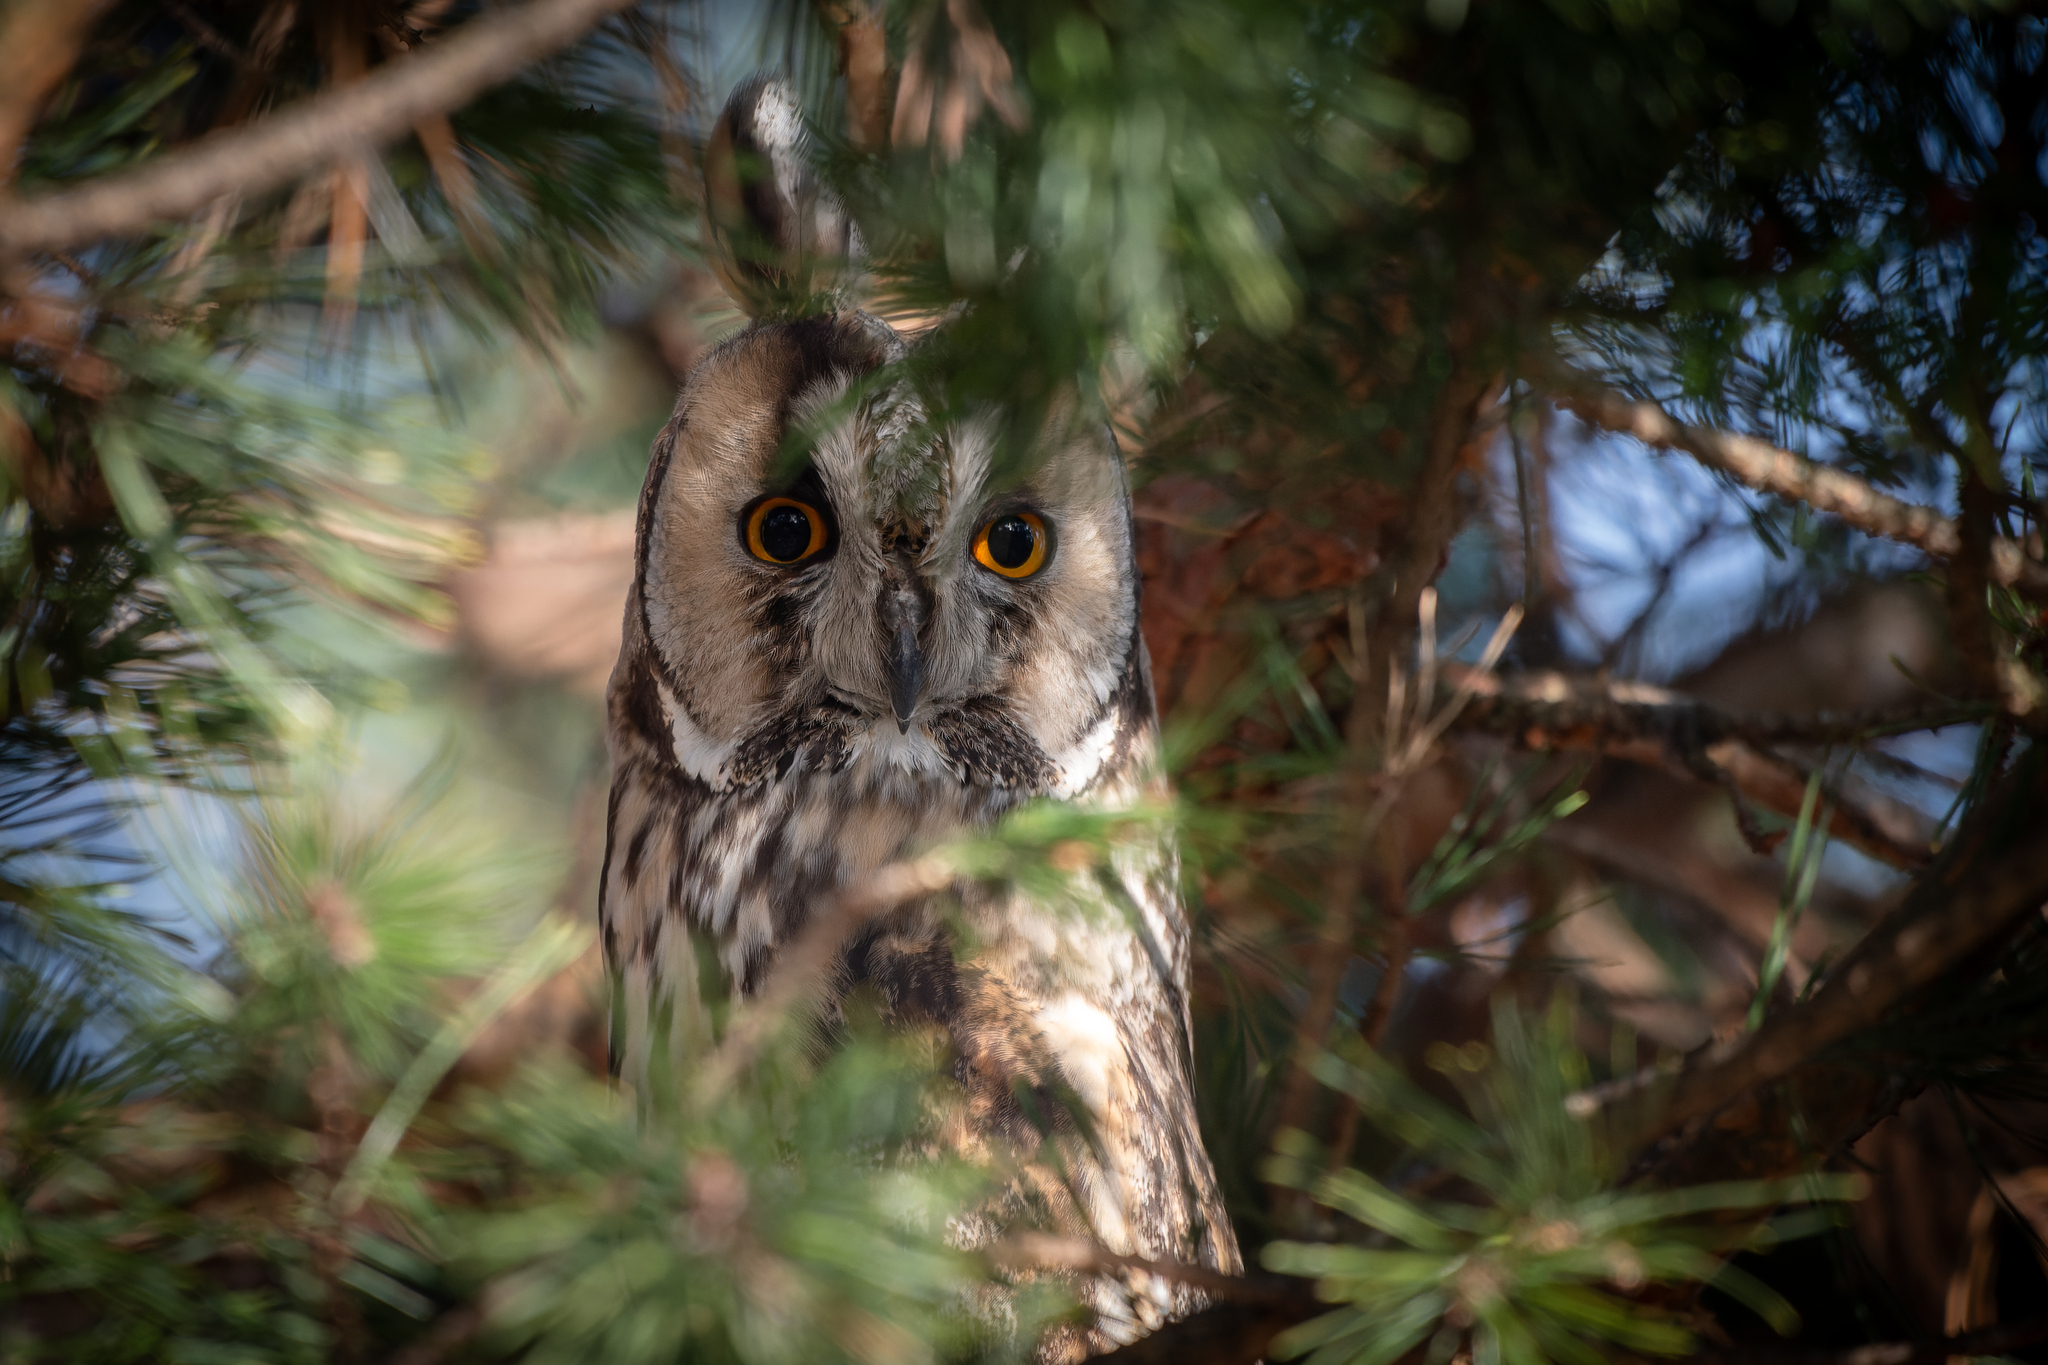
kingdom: Animalia
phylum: Chordata
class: Aves
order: Strigiformes
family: Strigidae
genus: Asio
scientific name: Asio otus
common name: Long-eared owl
